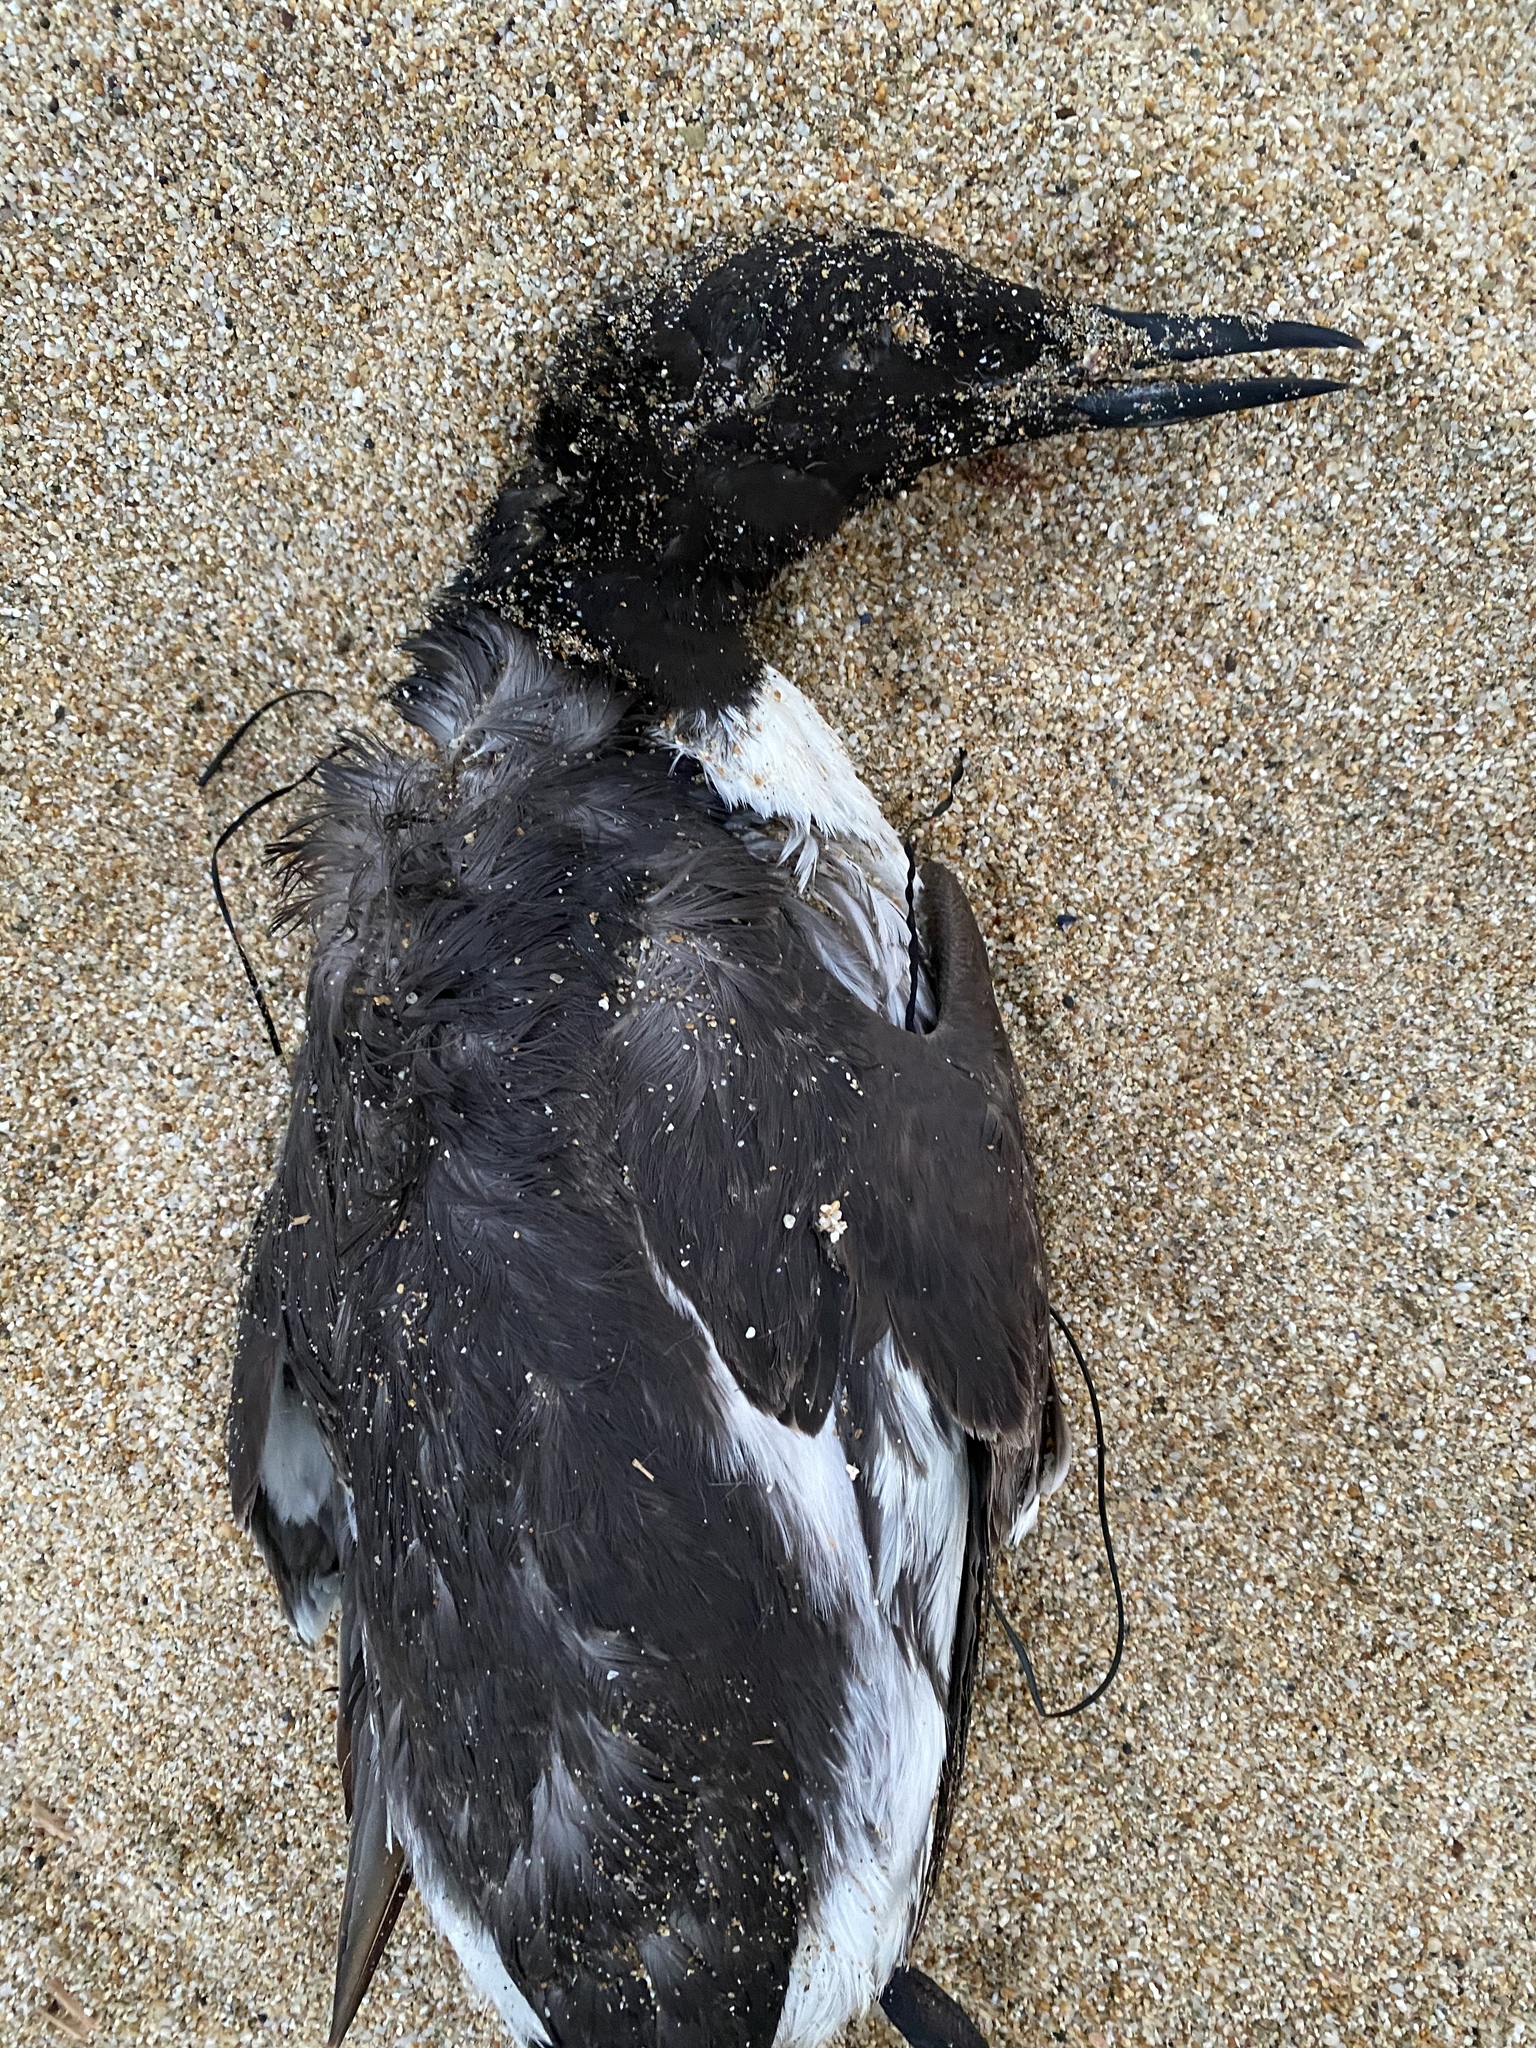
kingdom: Animalia
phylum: Chordata
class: Aves
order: Charadriiformes
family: Alcidae
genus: Uria
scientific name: Uria aalge
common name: Common murre
